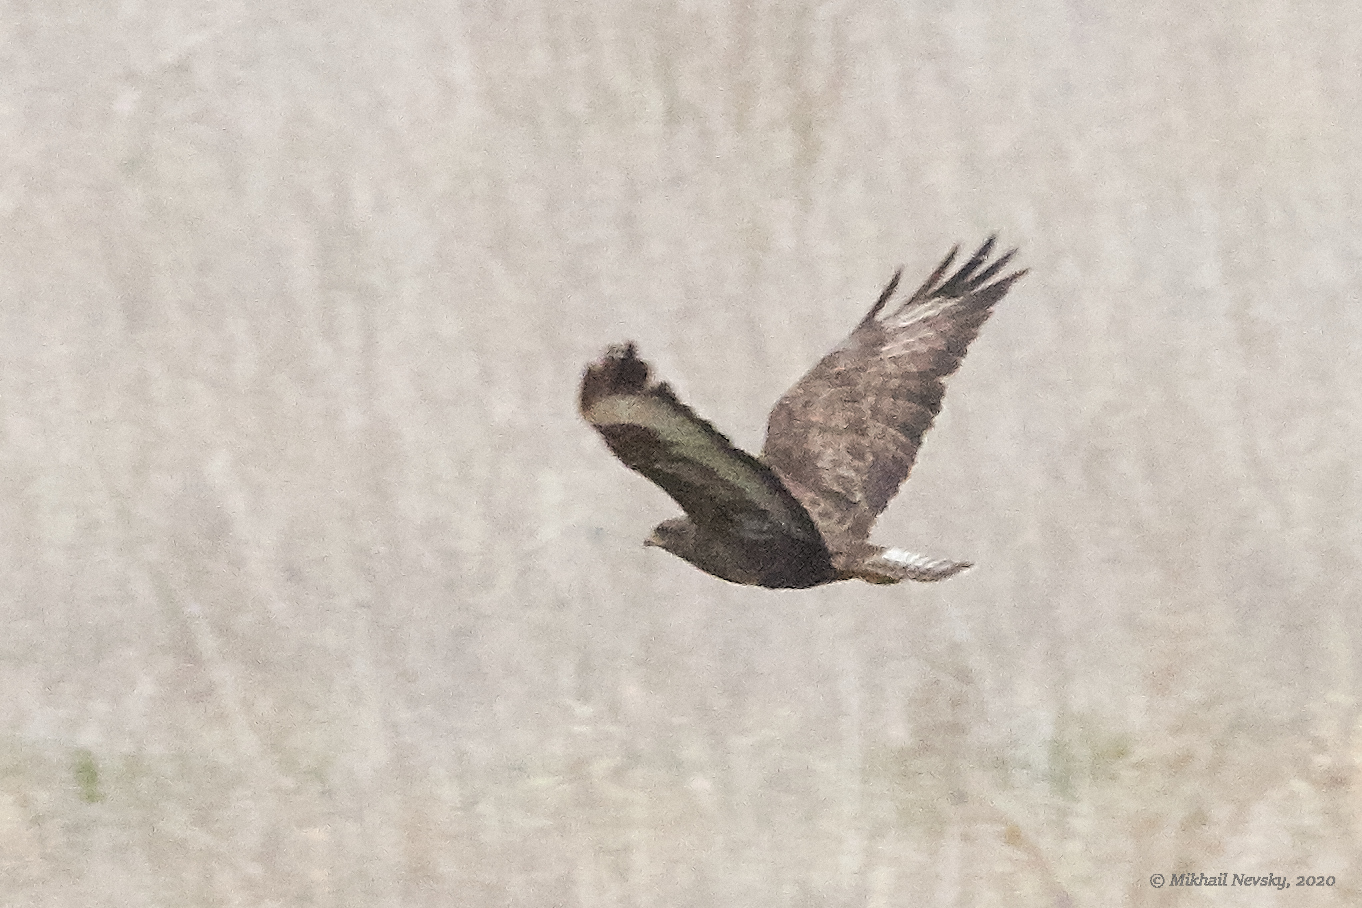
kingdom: Animalia
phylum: Chordata
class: Aves
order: Accipitriformes
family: Accipitridae
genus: Buteo
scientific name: Buteo buteo
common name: Common buzzard
